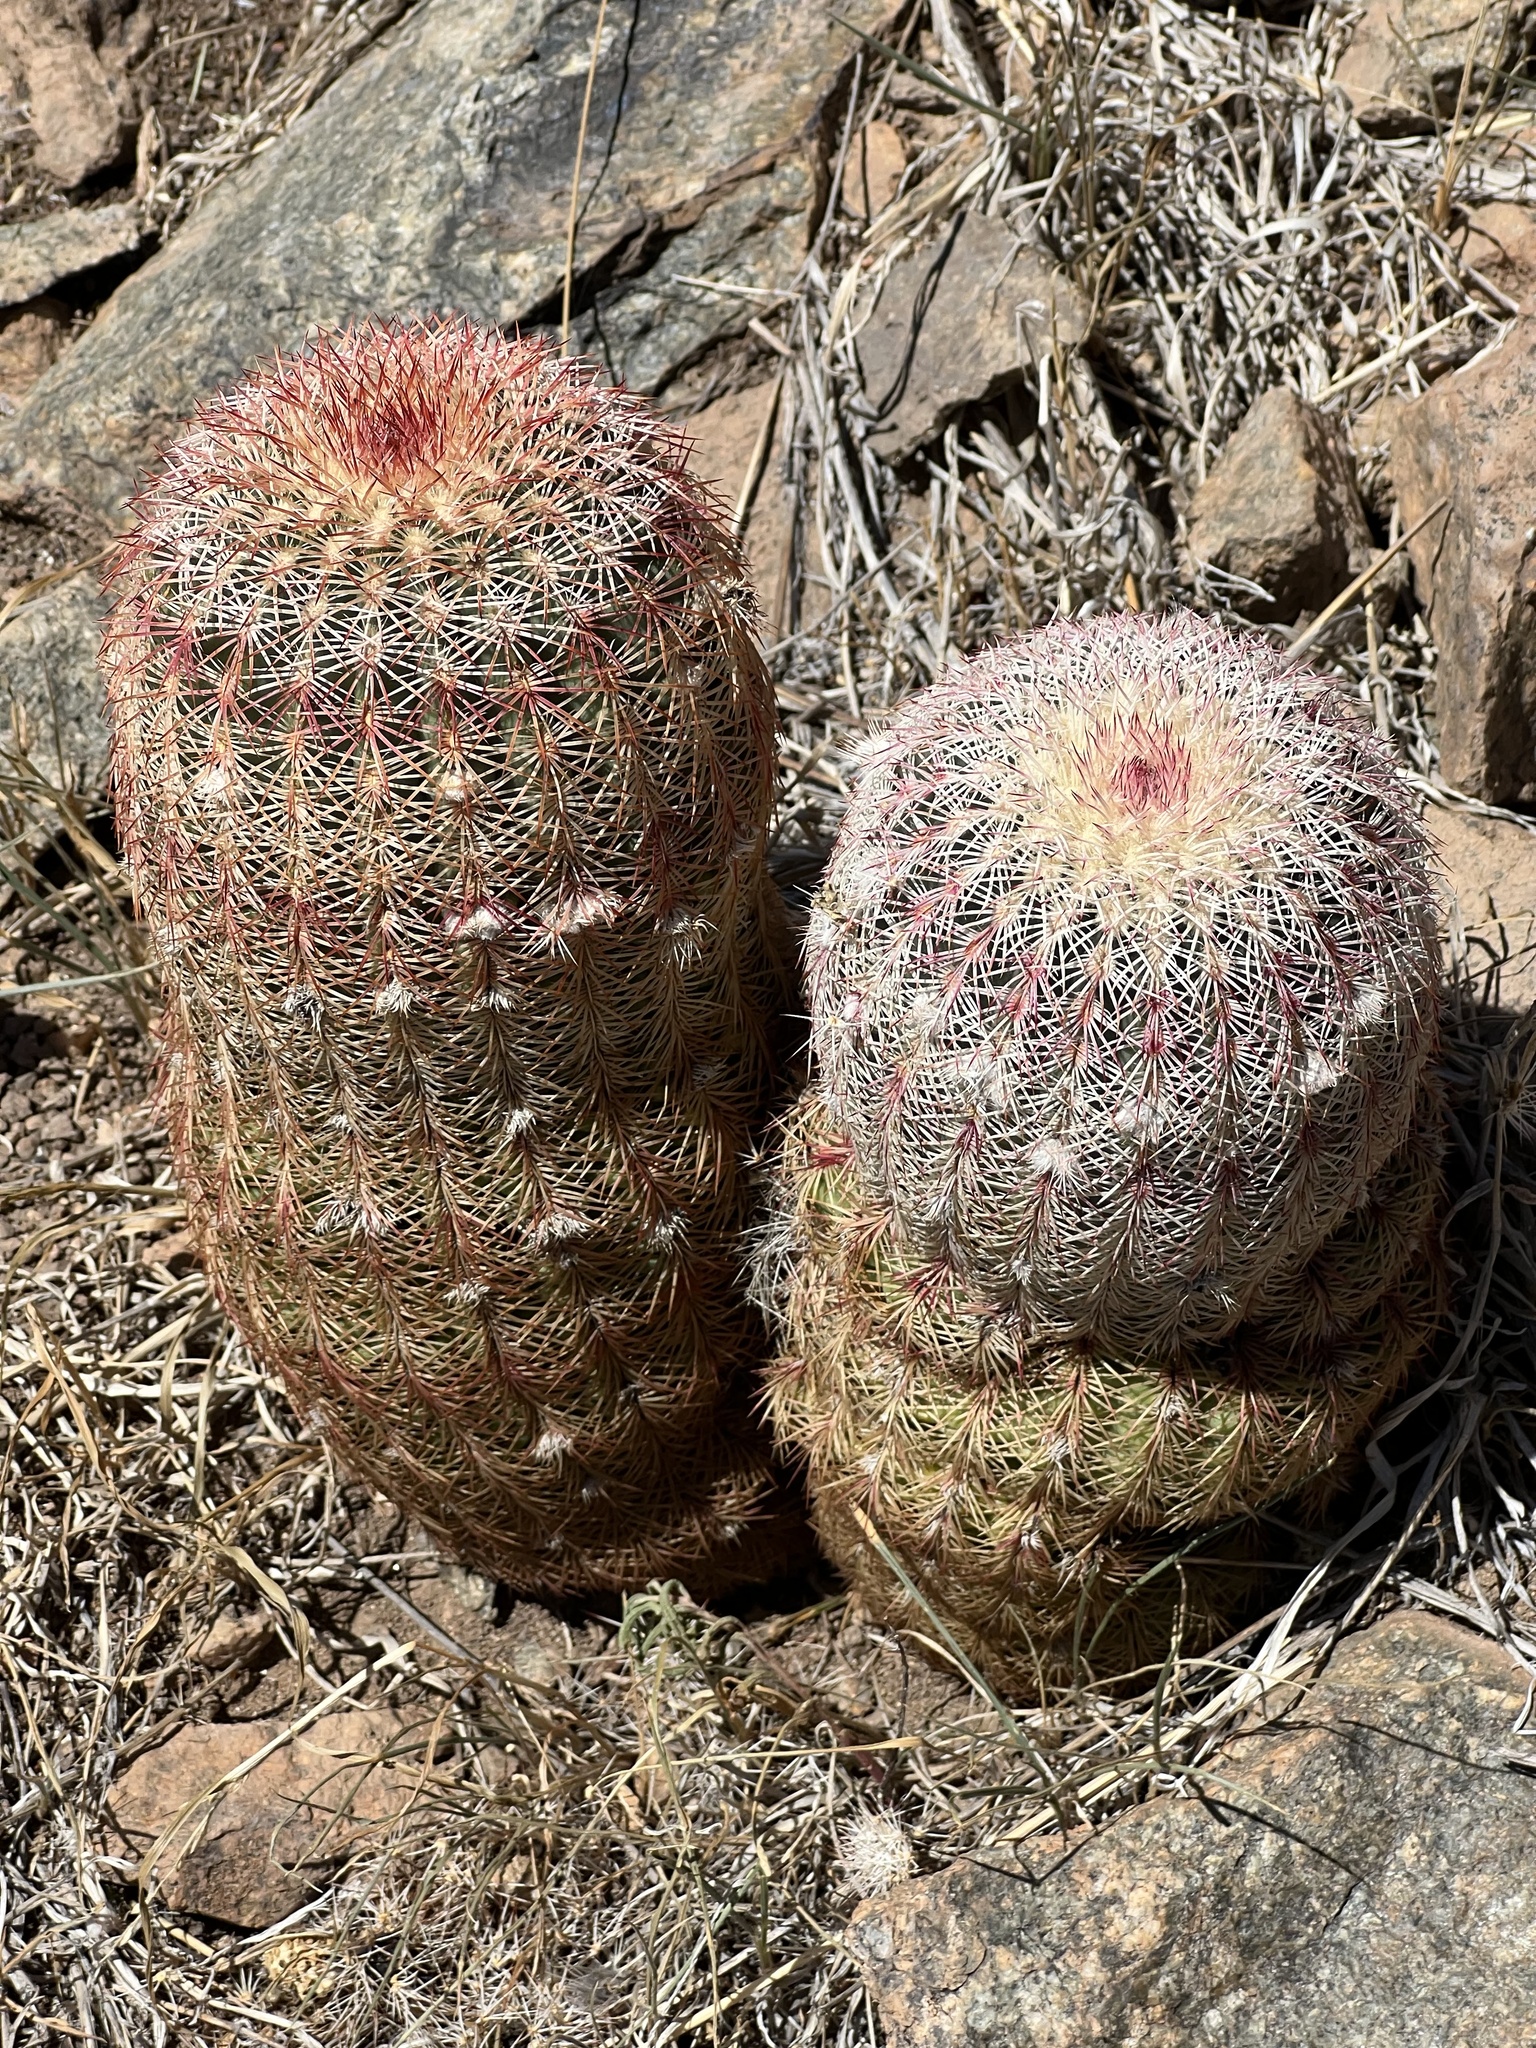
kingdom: Plantae
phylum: Tracheophyta
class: Magnoliopsida
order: Caryophyllales
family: Cactaceae
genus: Echinocereus
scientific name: Echinocereus rigidissimus
